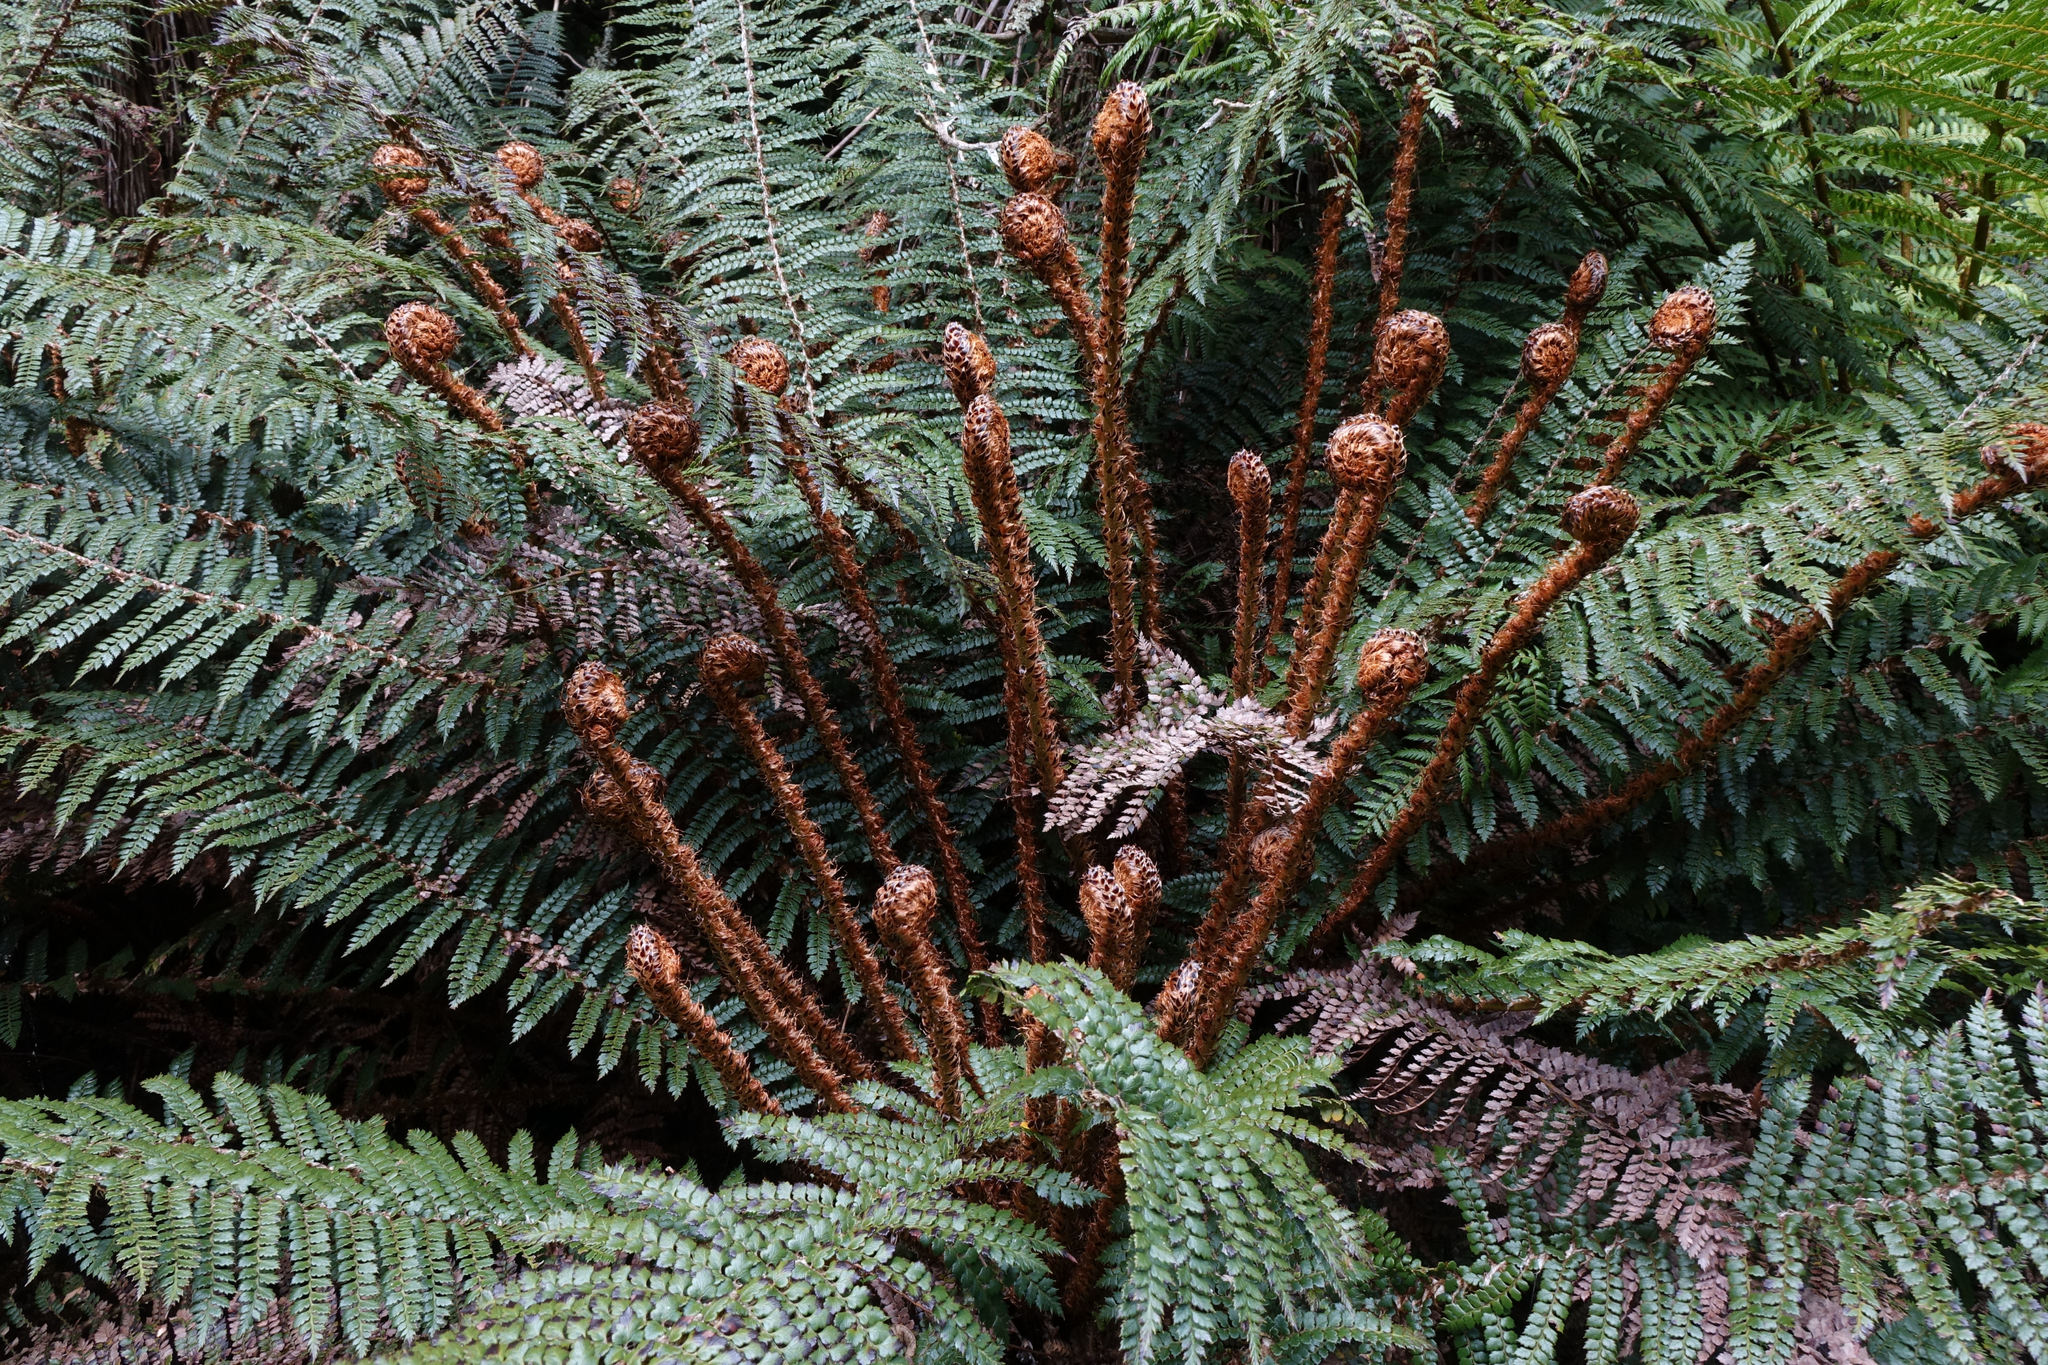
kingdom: Plantae
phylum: Tracheophyta
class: Polypodiopsida
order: Polypodiales
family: Dryopteridaceae
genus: Polystichum
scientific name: Polystichum vestitum
